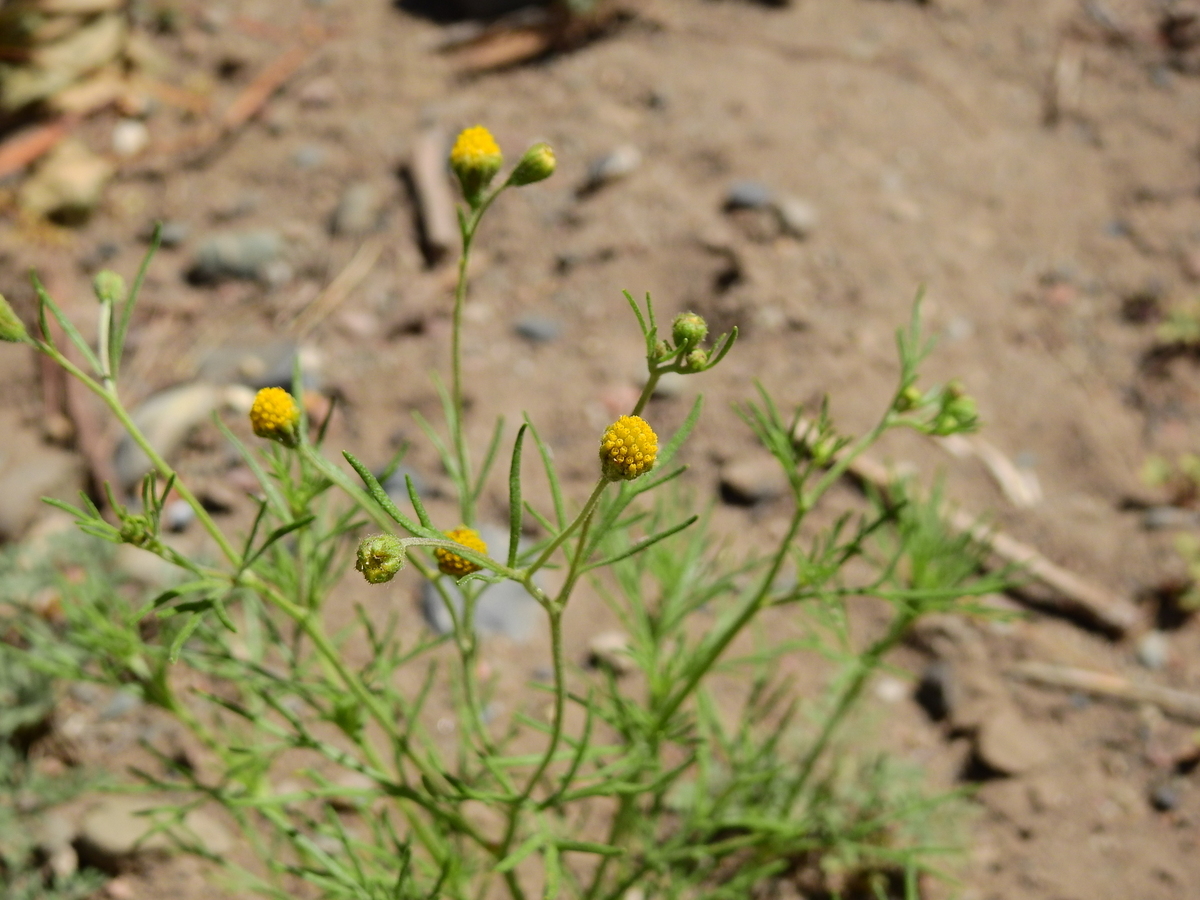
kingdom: Plantae
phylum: Tracheophyta
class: Magnoliopsida
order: Asterales
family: Asteraceae
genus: Picradeniopsis
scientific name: Picradeniopsis multiflora
